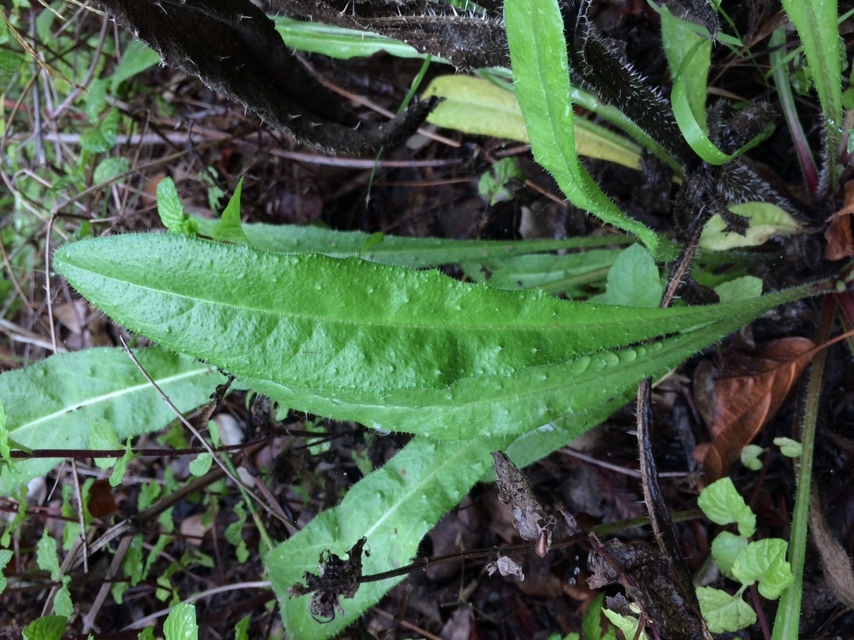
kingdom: Plantae
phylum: Tracheophyta
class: Magnoliopsida
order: Asterales
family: Asteraceae
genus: Helminthotheca
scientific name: Helminthotheca echioides
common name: Ox-tongue
